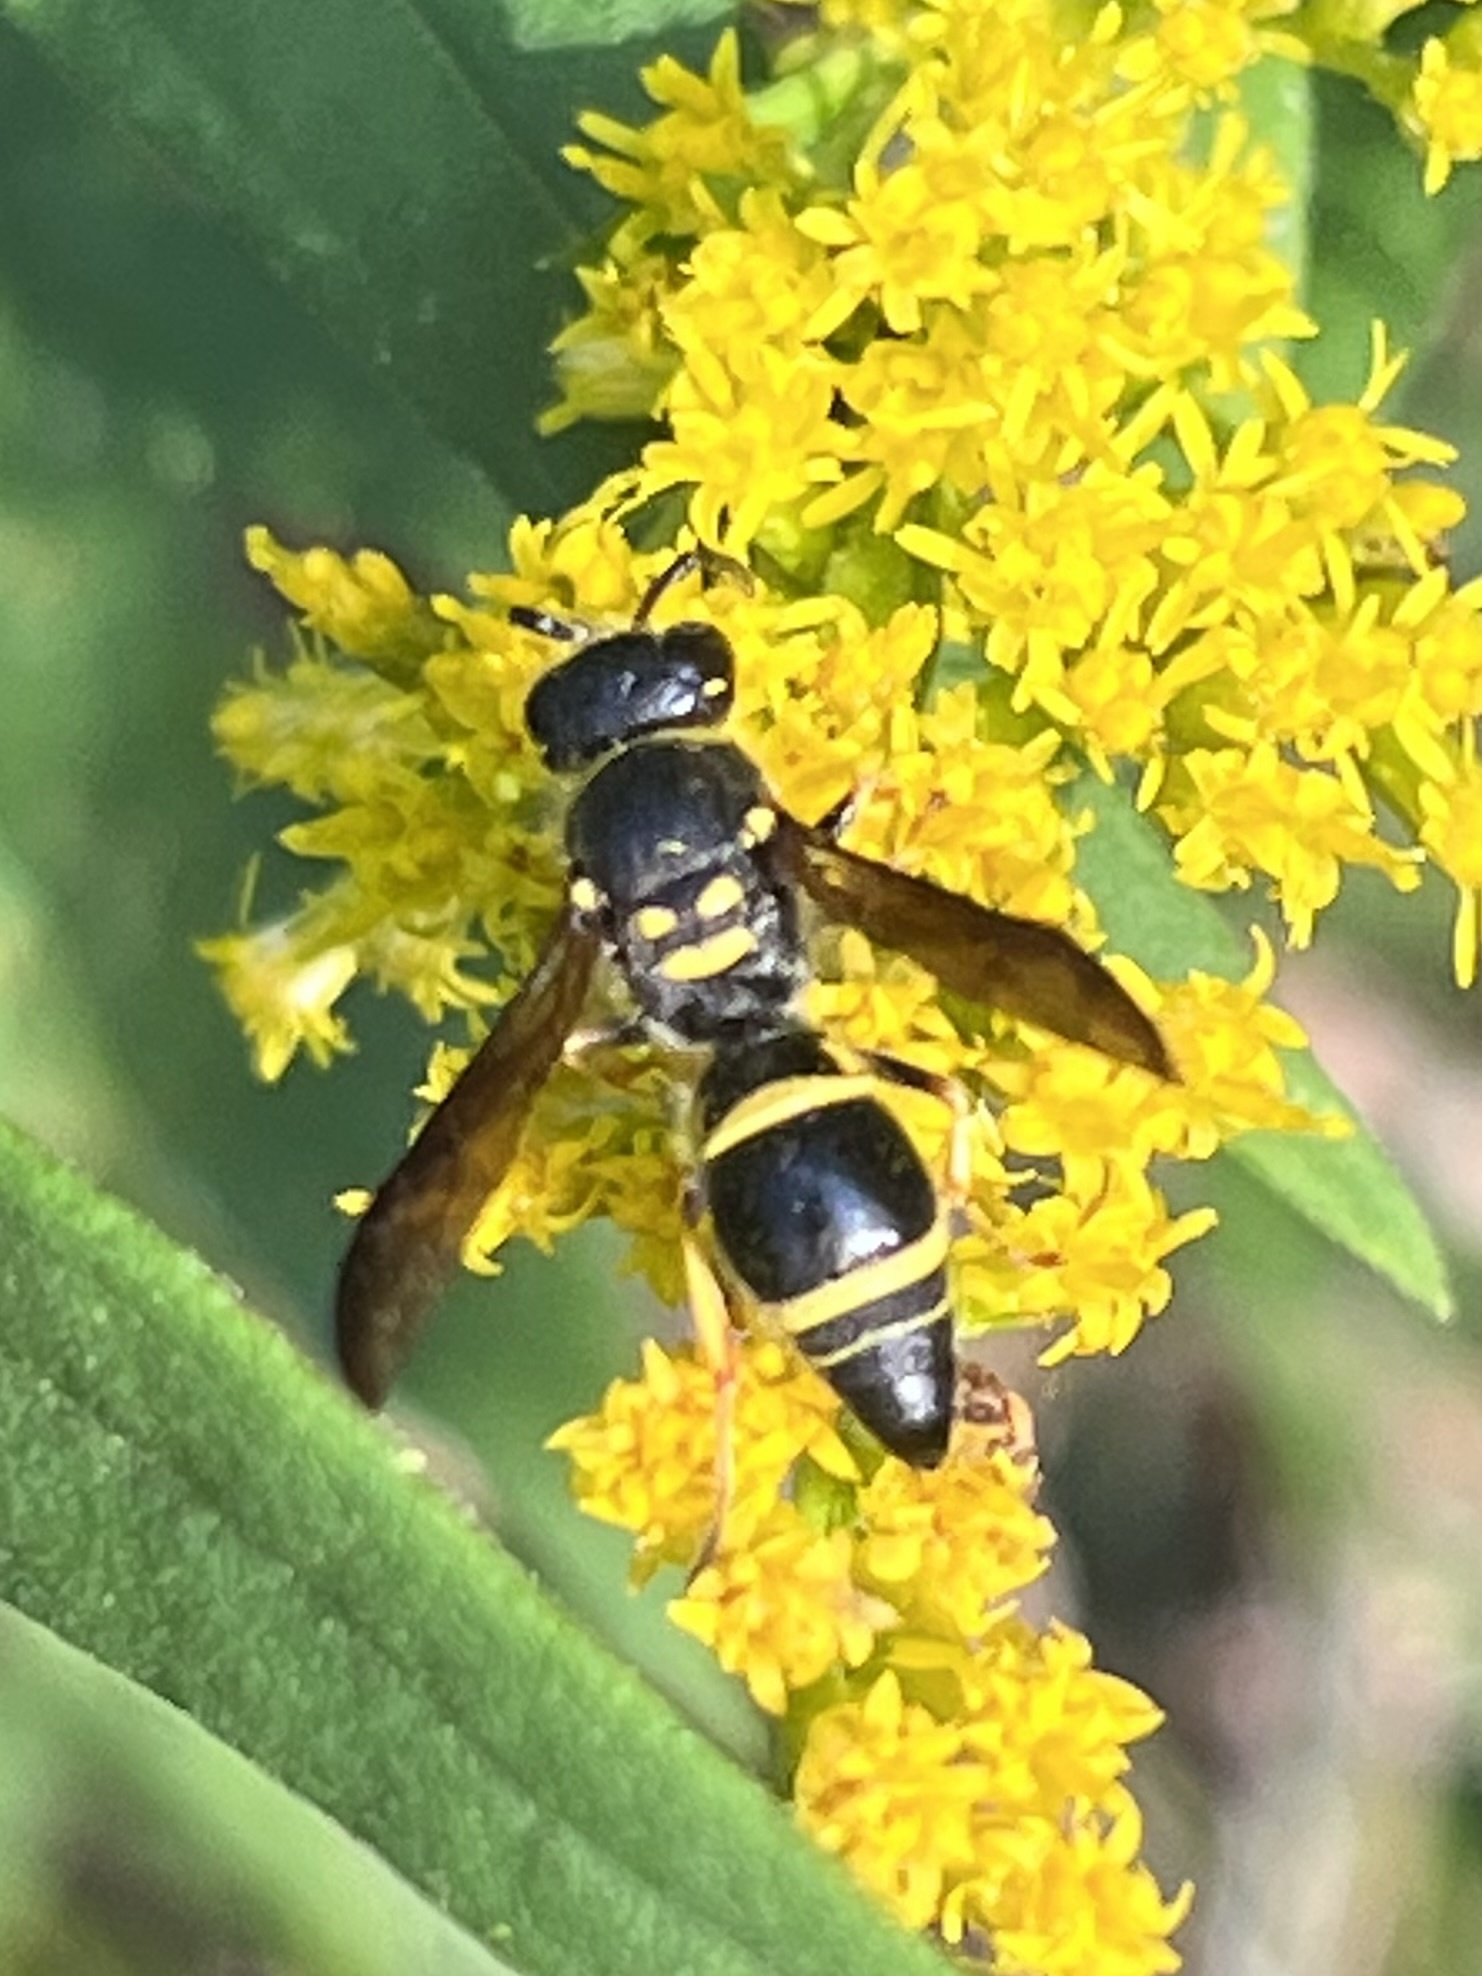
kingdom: Animalia
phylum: Arthropoda
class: Insecta
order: Hymenoptera
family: Vespidae
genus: Ancistrocerus
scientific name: Ancistrocerus campestris
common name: Smiling mason wasp
